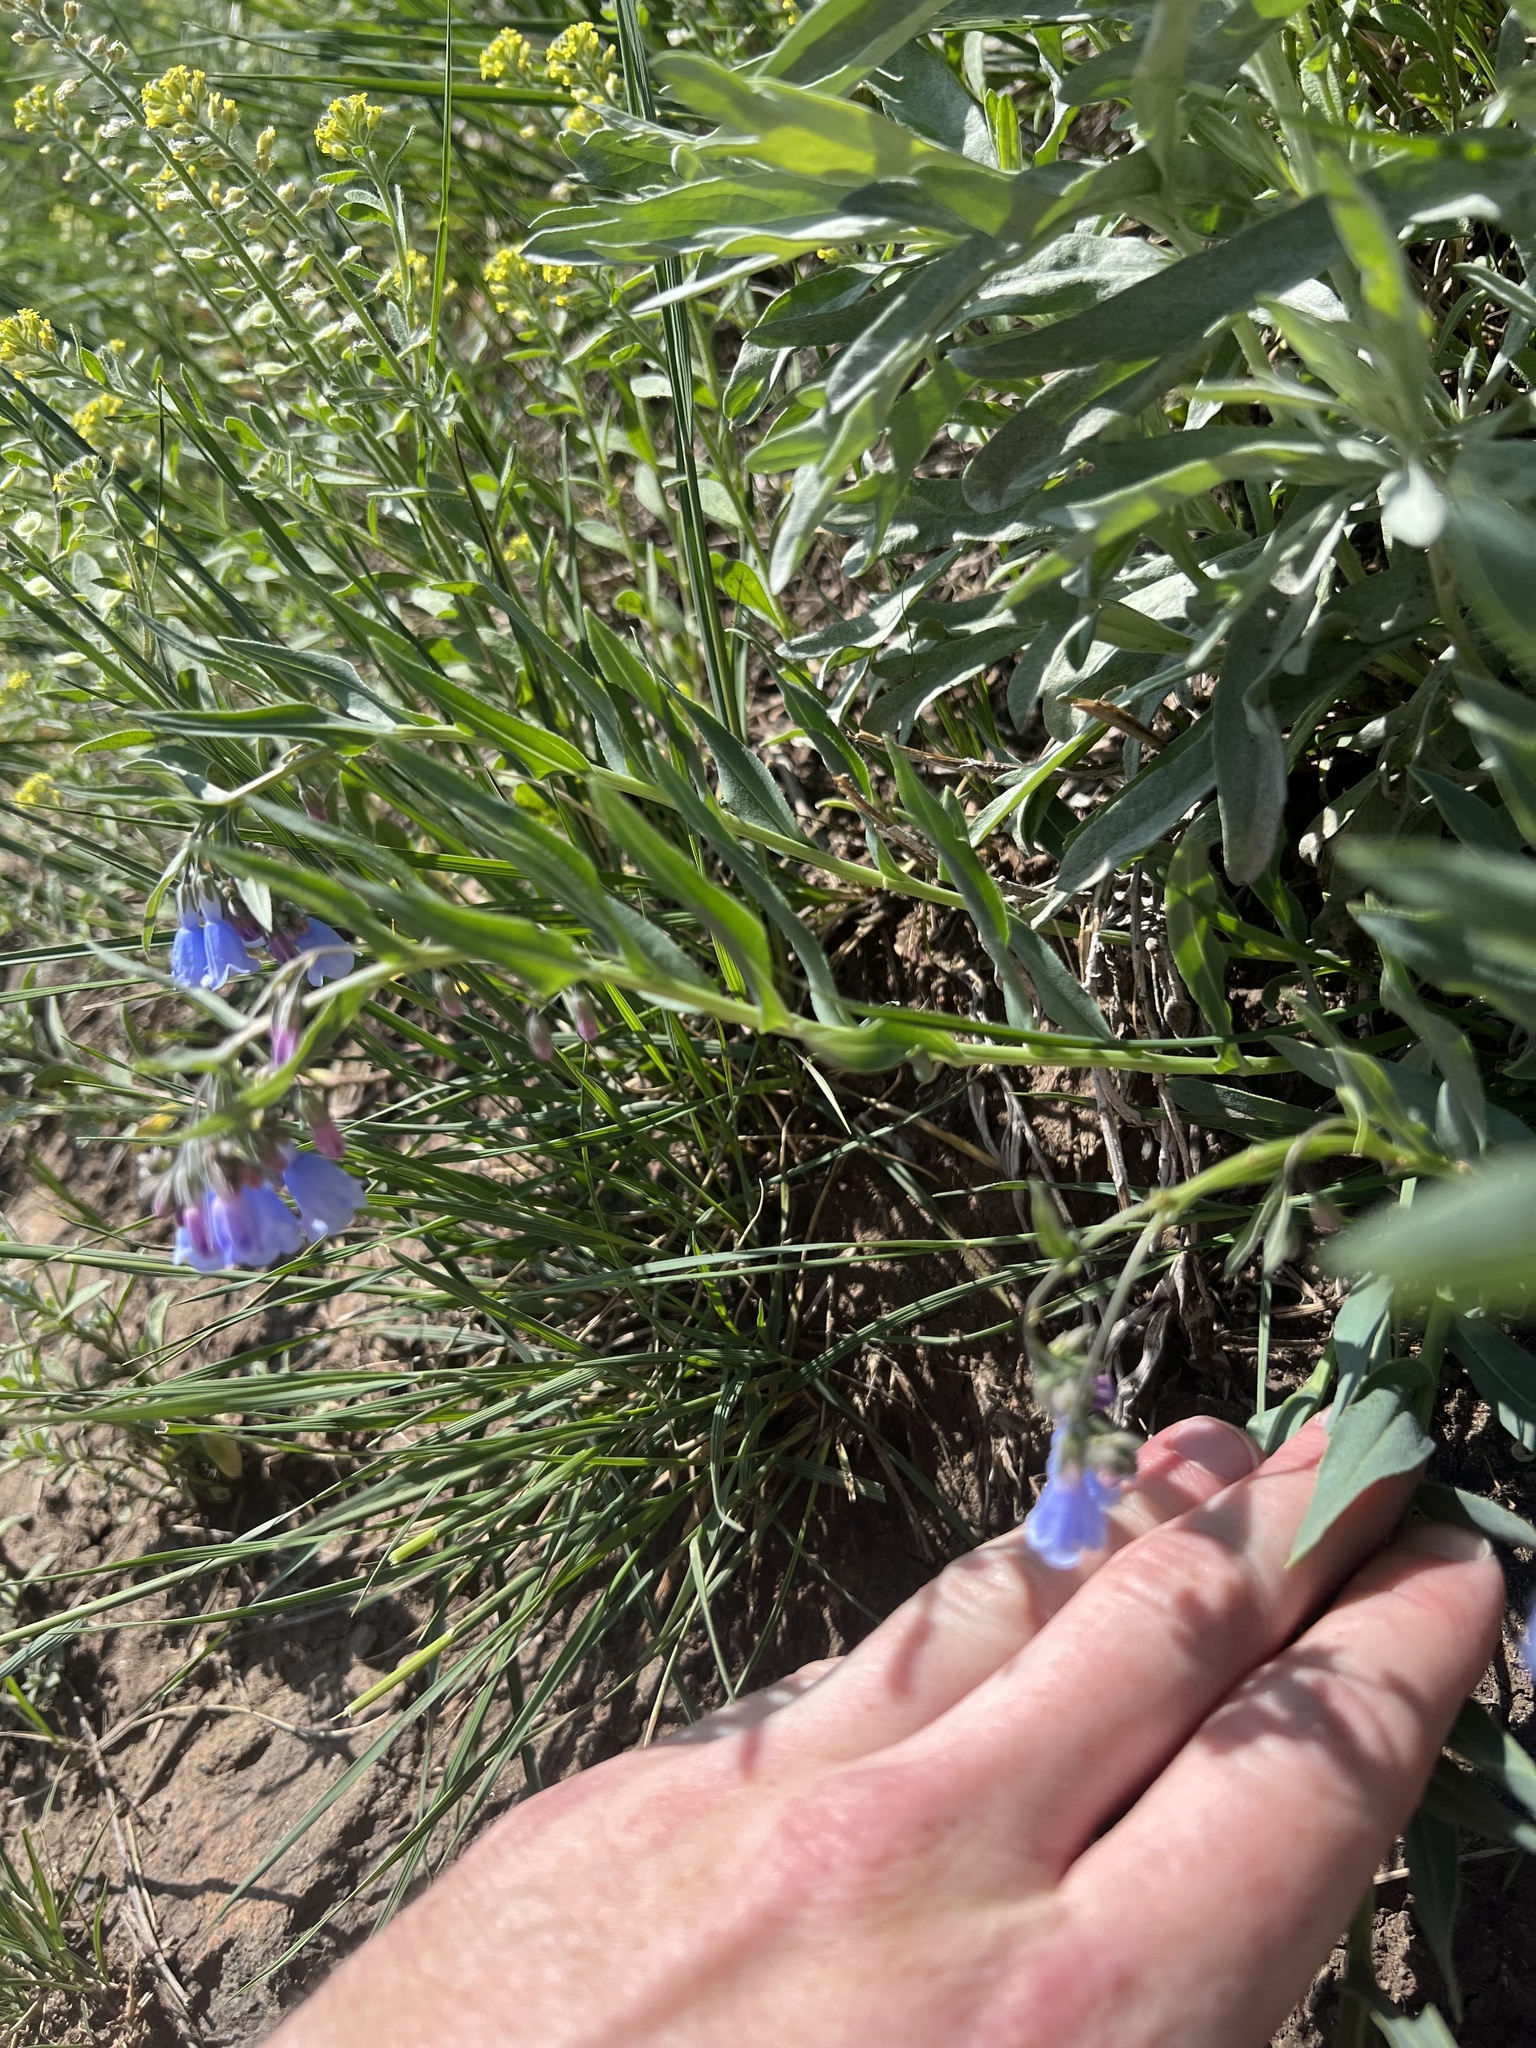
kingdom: Plantae
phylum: Tracheophyta
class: Magnoliopsida
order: Boraginales
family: Boraginaceae
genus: Mertensia
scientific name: Mertensia lanceolata
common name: Lance-leaved bluebells
